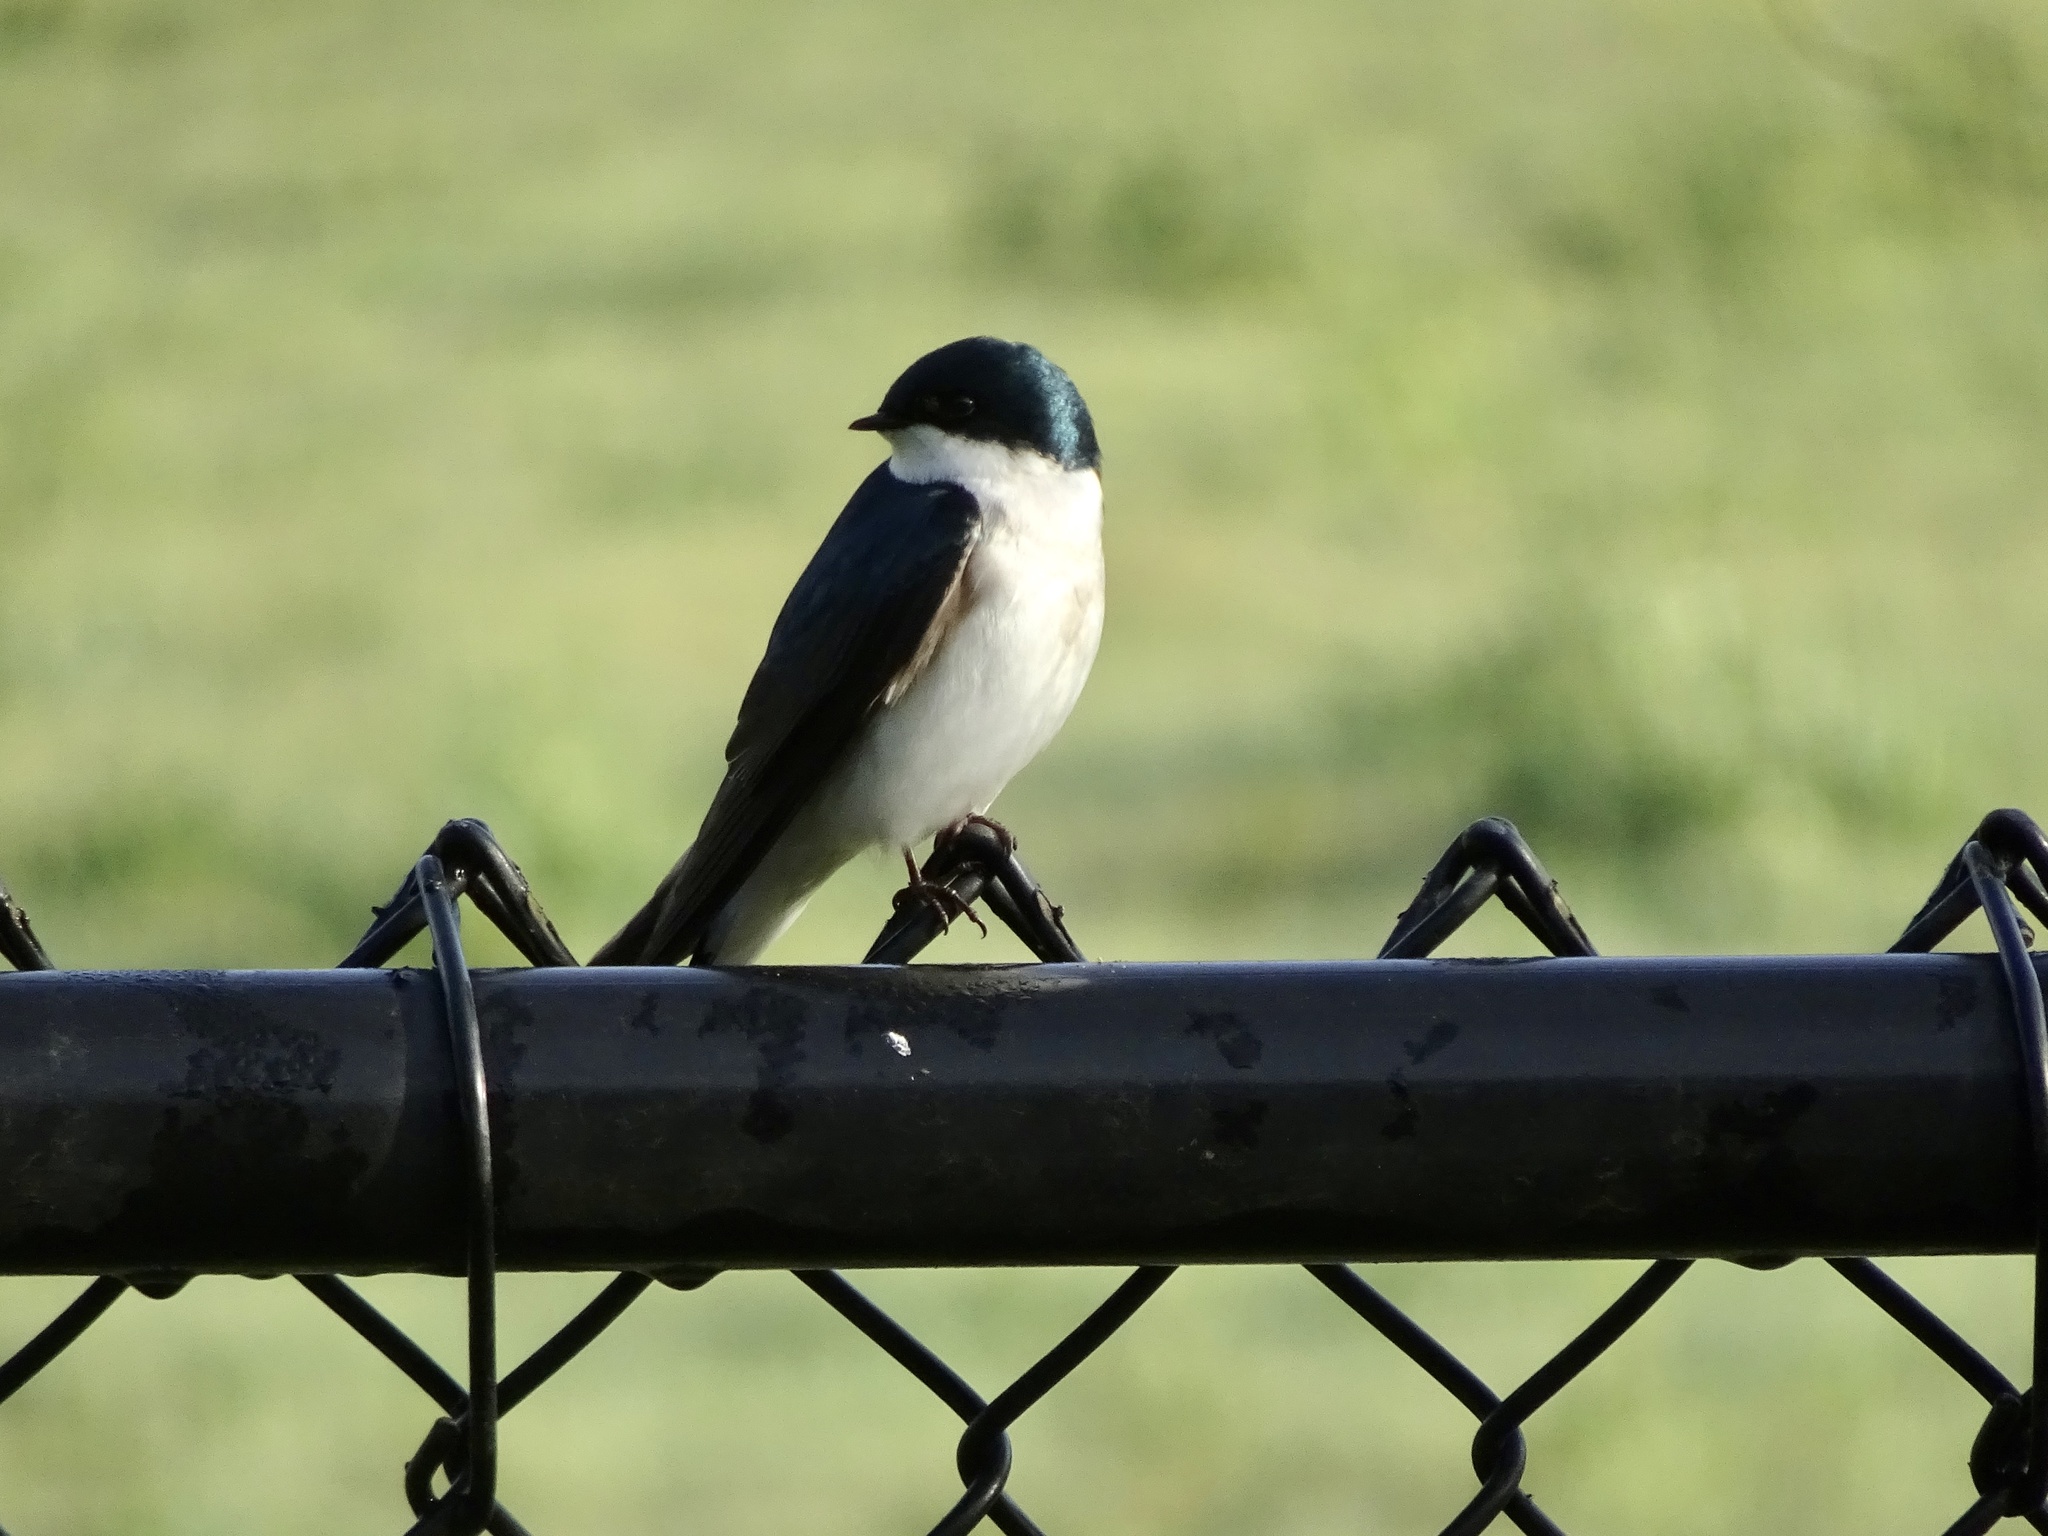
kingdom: Animalia
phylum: Chordata
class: Aves
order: Passeriformes
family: Hirundinidae
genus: Tachycineta
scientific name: Tachycineta bicolor
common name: Tree swallow
